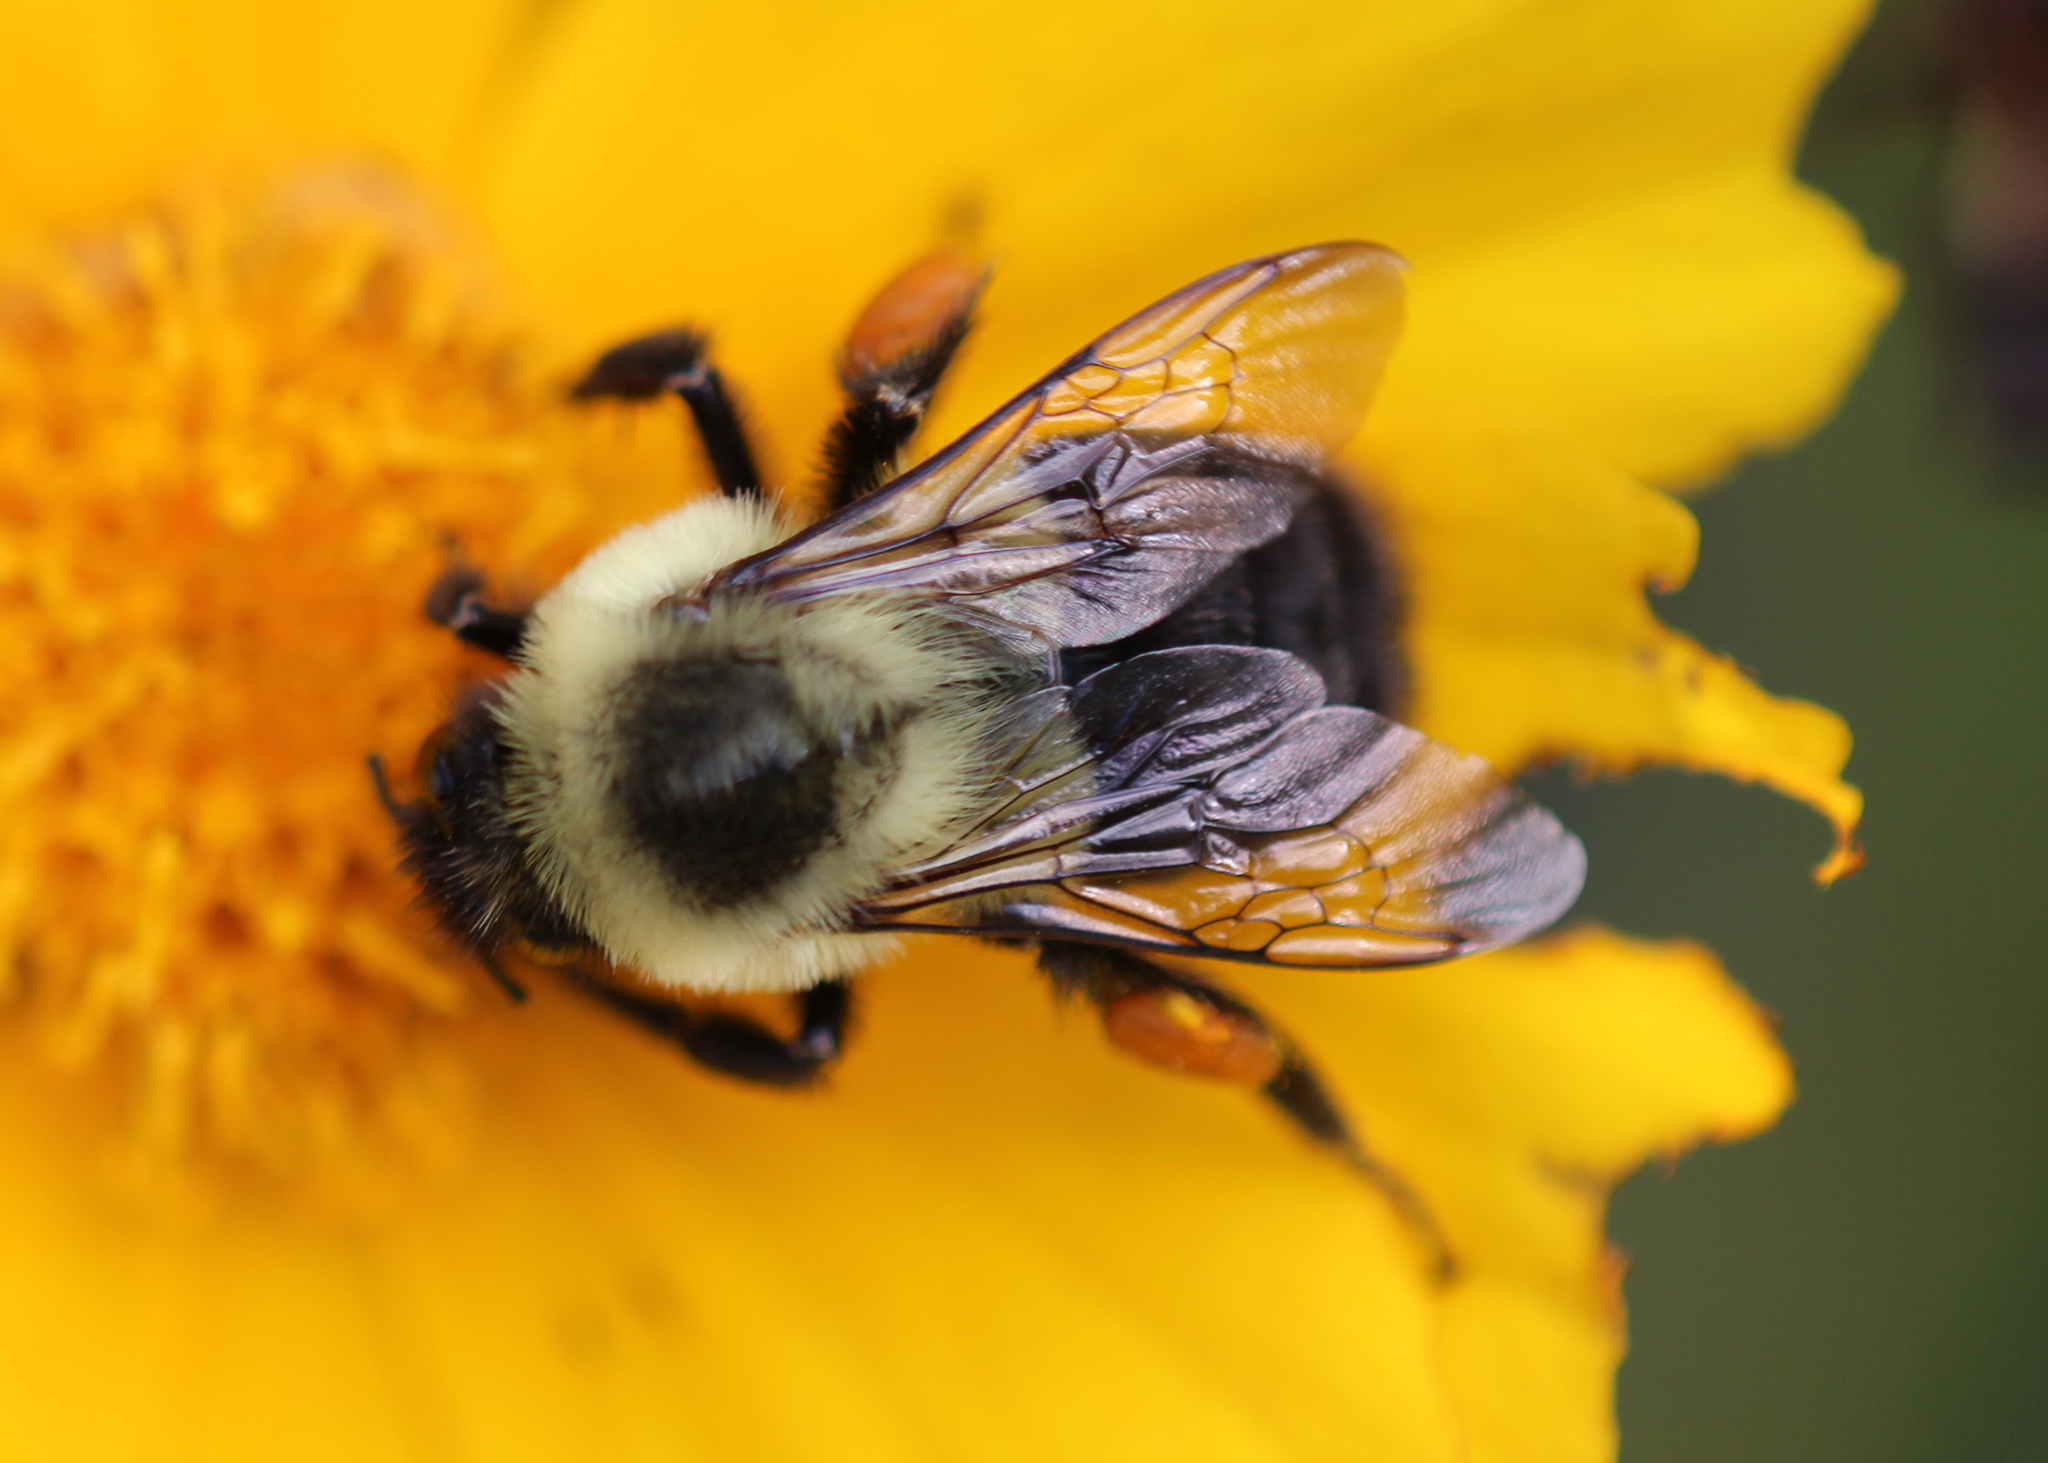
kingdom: Animalia
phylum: Arthropoda
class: Insecta
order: Hymenoptera
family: Apidae
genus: Bombus
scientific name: Bombus impatiens
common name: Common eastern bumble bee
